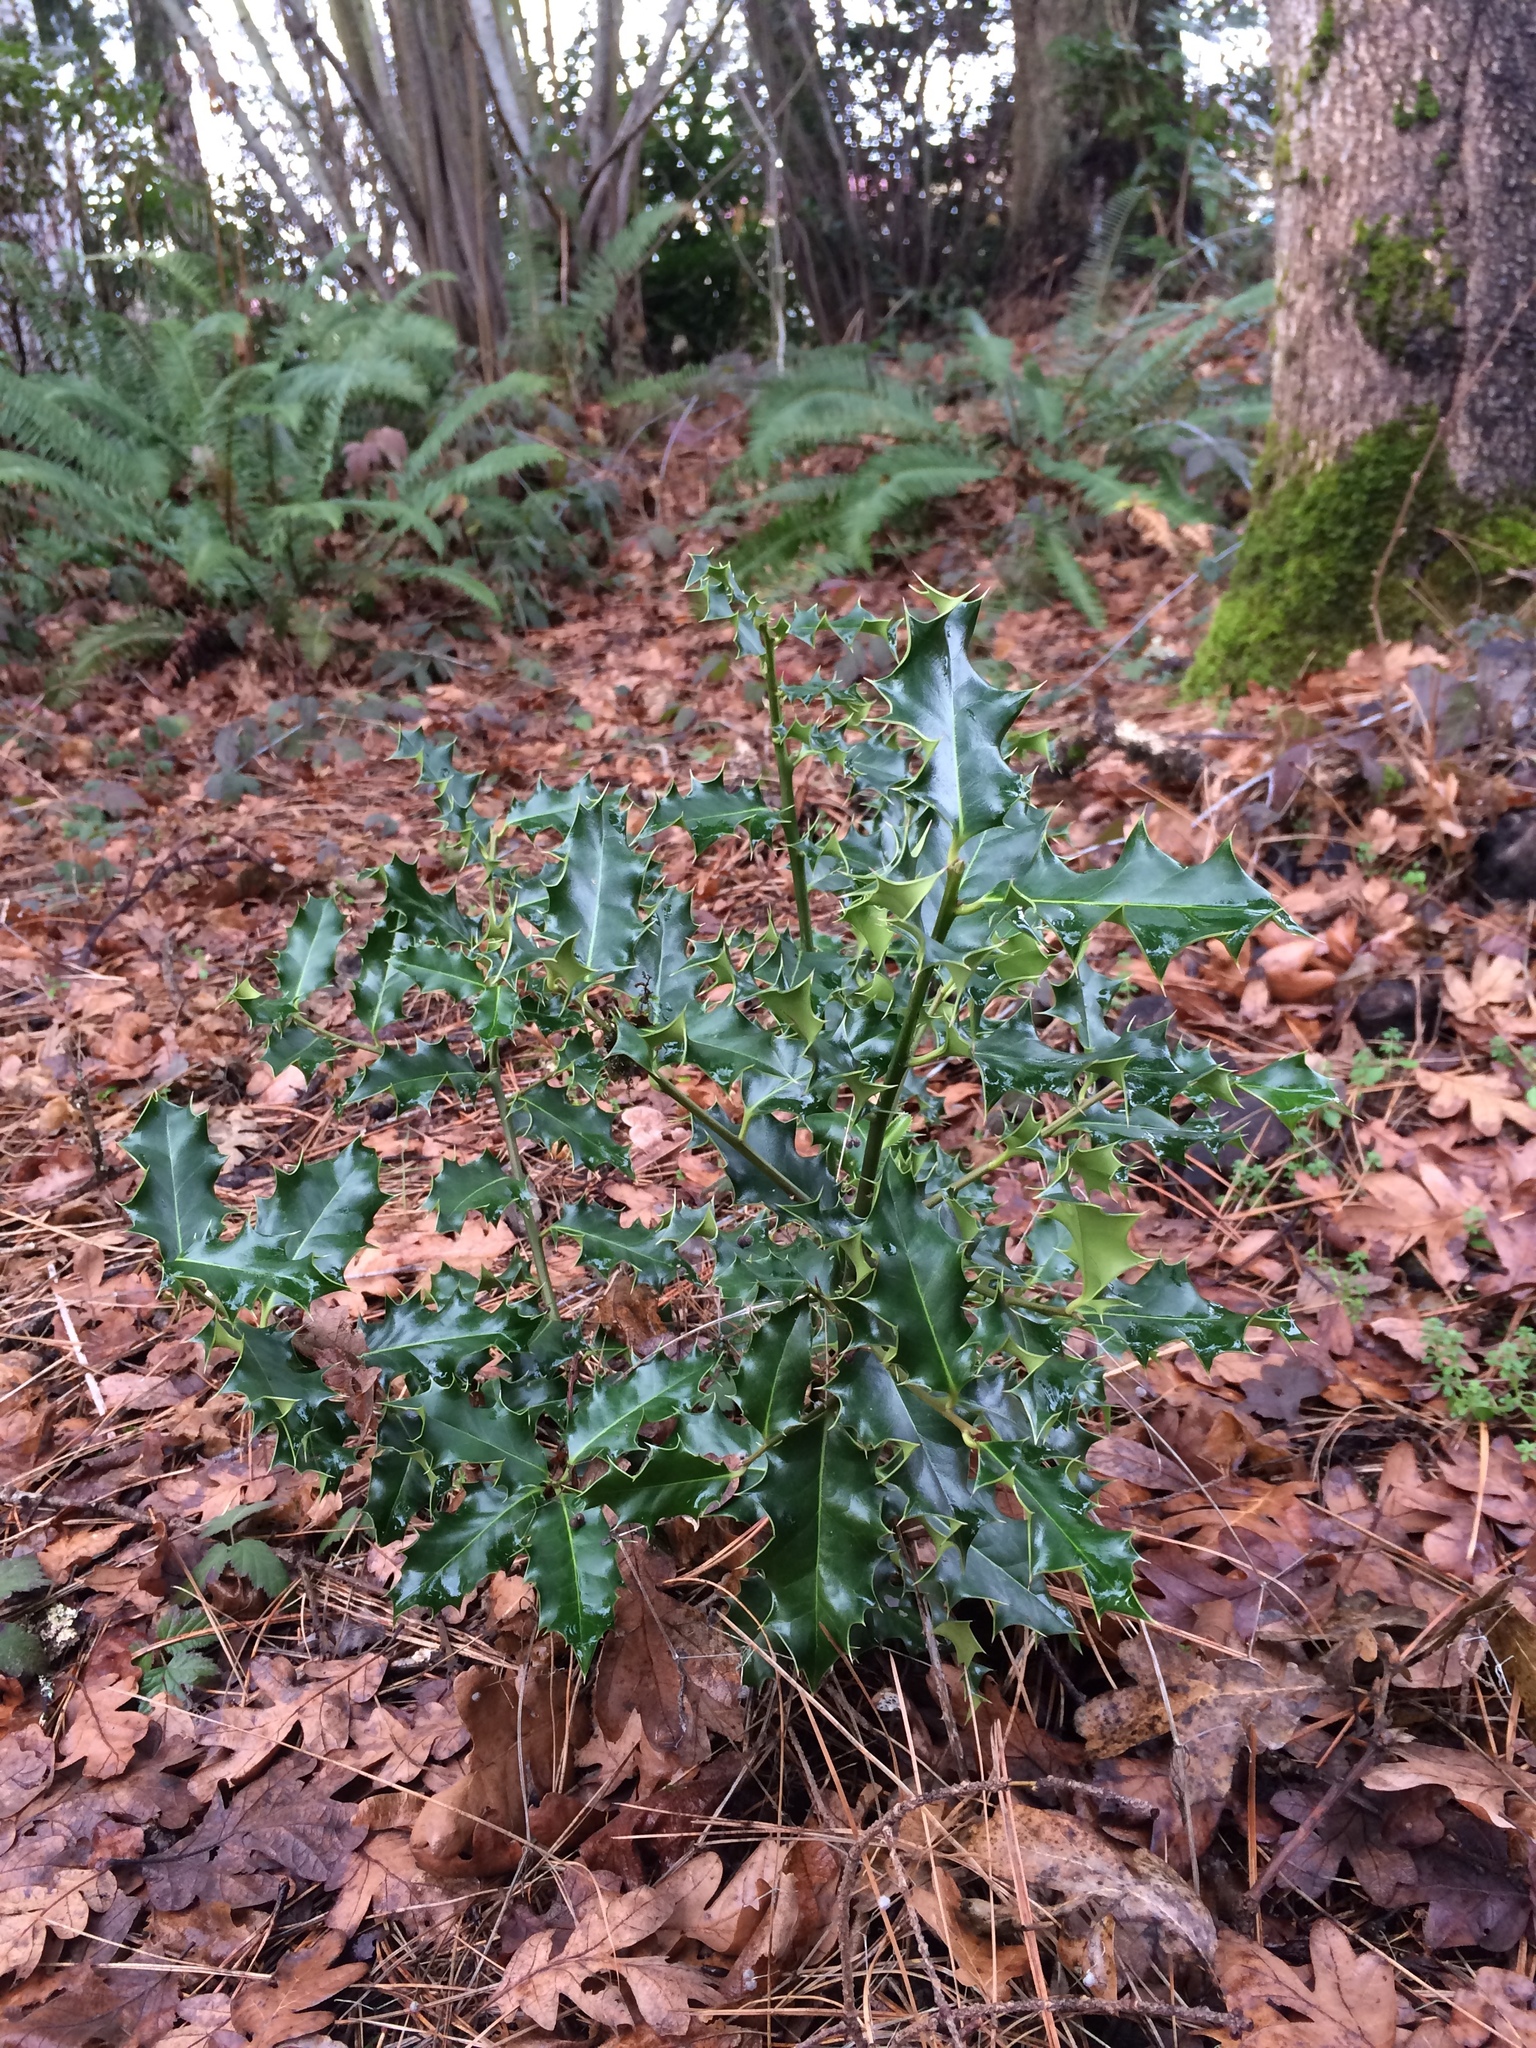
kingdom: Plantae
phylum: Tracheophyta
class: Magnoliopsida
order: Aquifoliales
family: Aquifoliaceae
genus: Ilex
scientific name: Ilex aquifolium
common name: English holly
